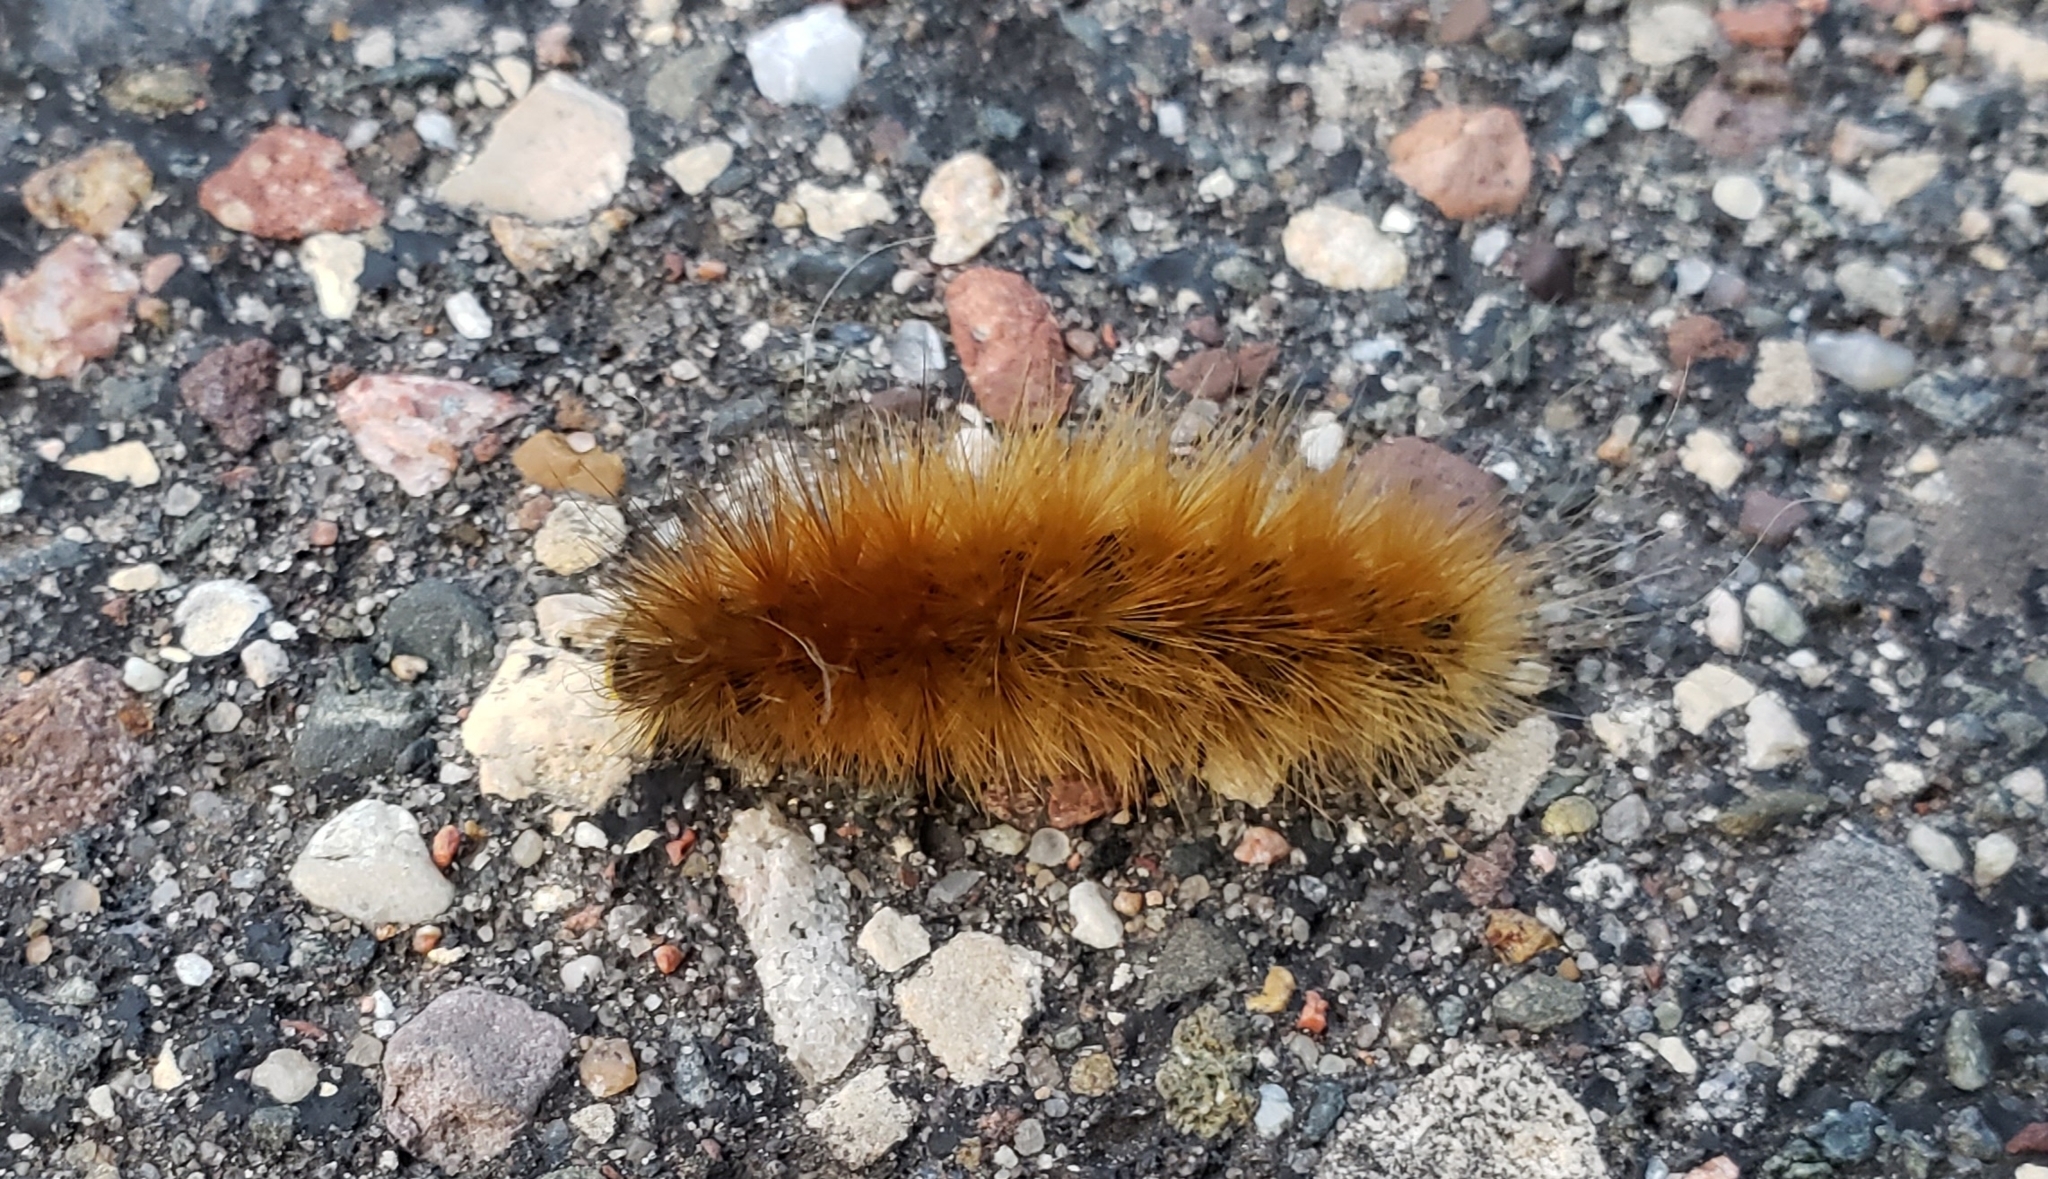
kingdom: Animalia
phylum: Arthropoda
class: Insecta
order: Lepidoptera
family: Erebidae
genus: Spilosoma
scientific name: Spilosoma virginica
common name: Virginia tiger moth
